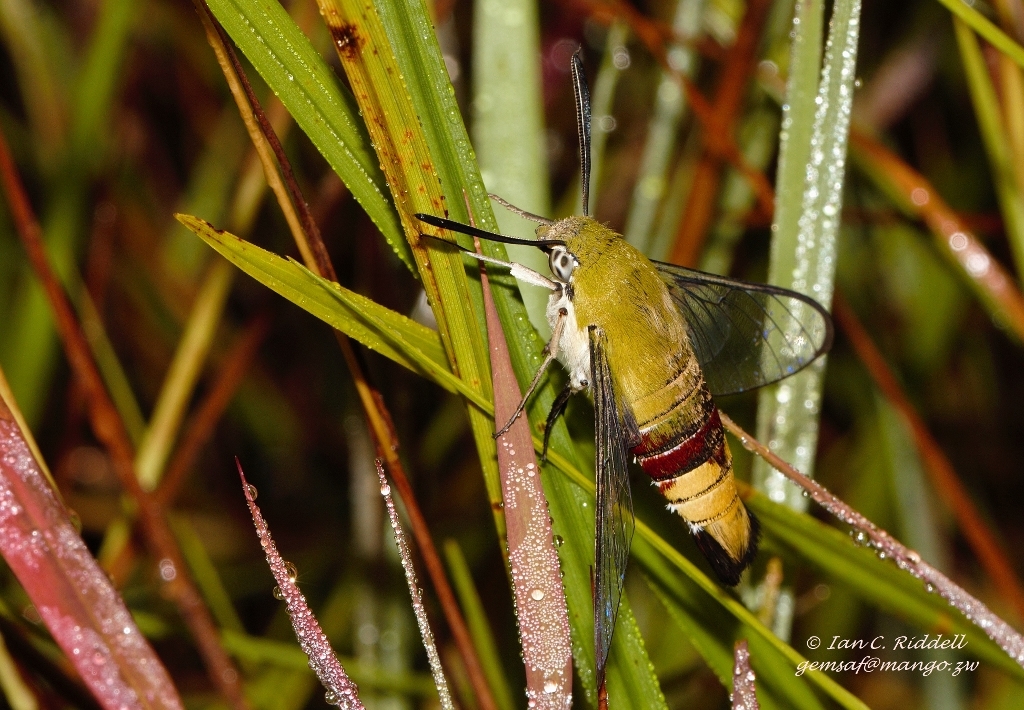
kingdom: Animalia
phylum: Arthropoda
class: Insecta
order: Lepidoptera
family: Sphingidae
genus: Cephonodes
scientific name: Cephonodes hylas
